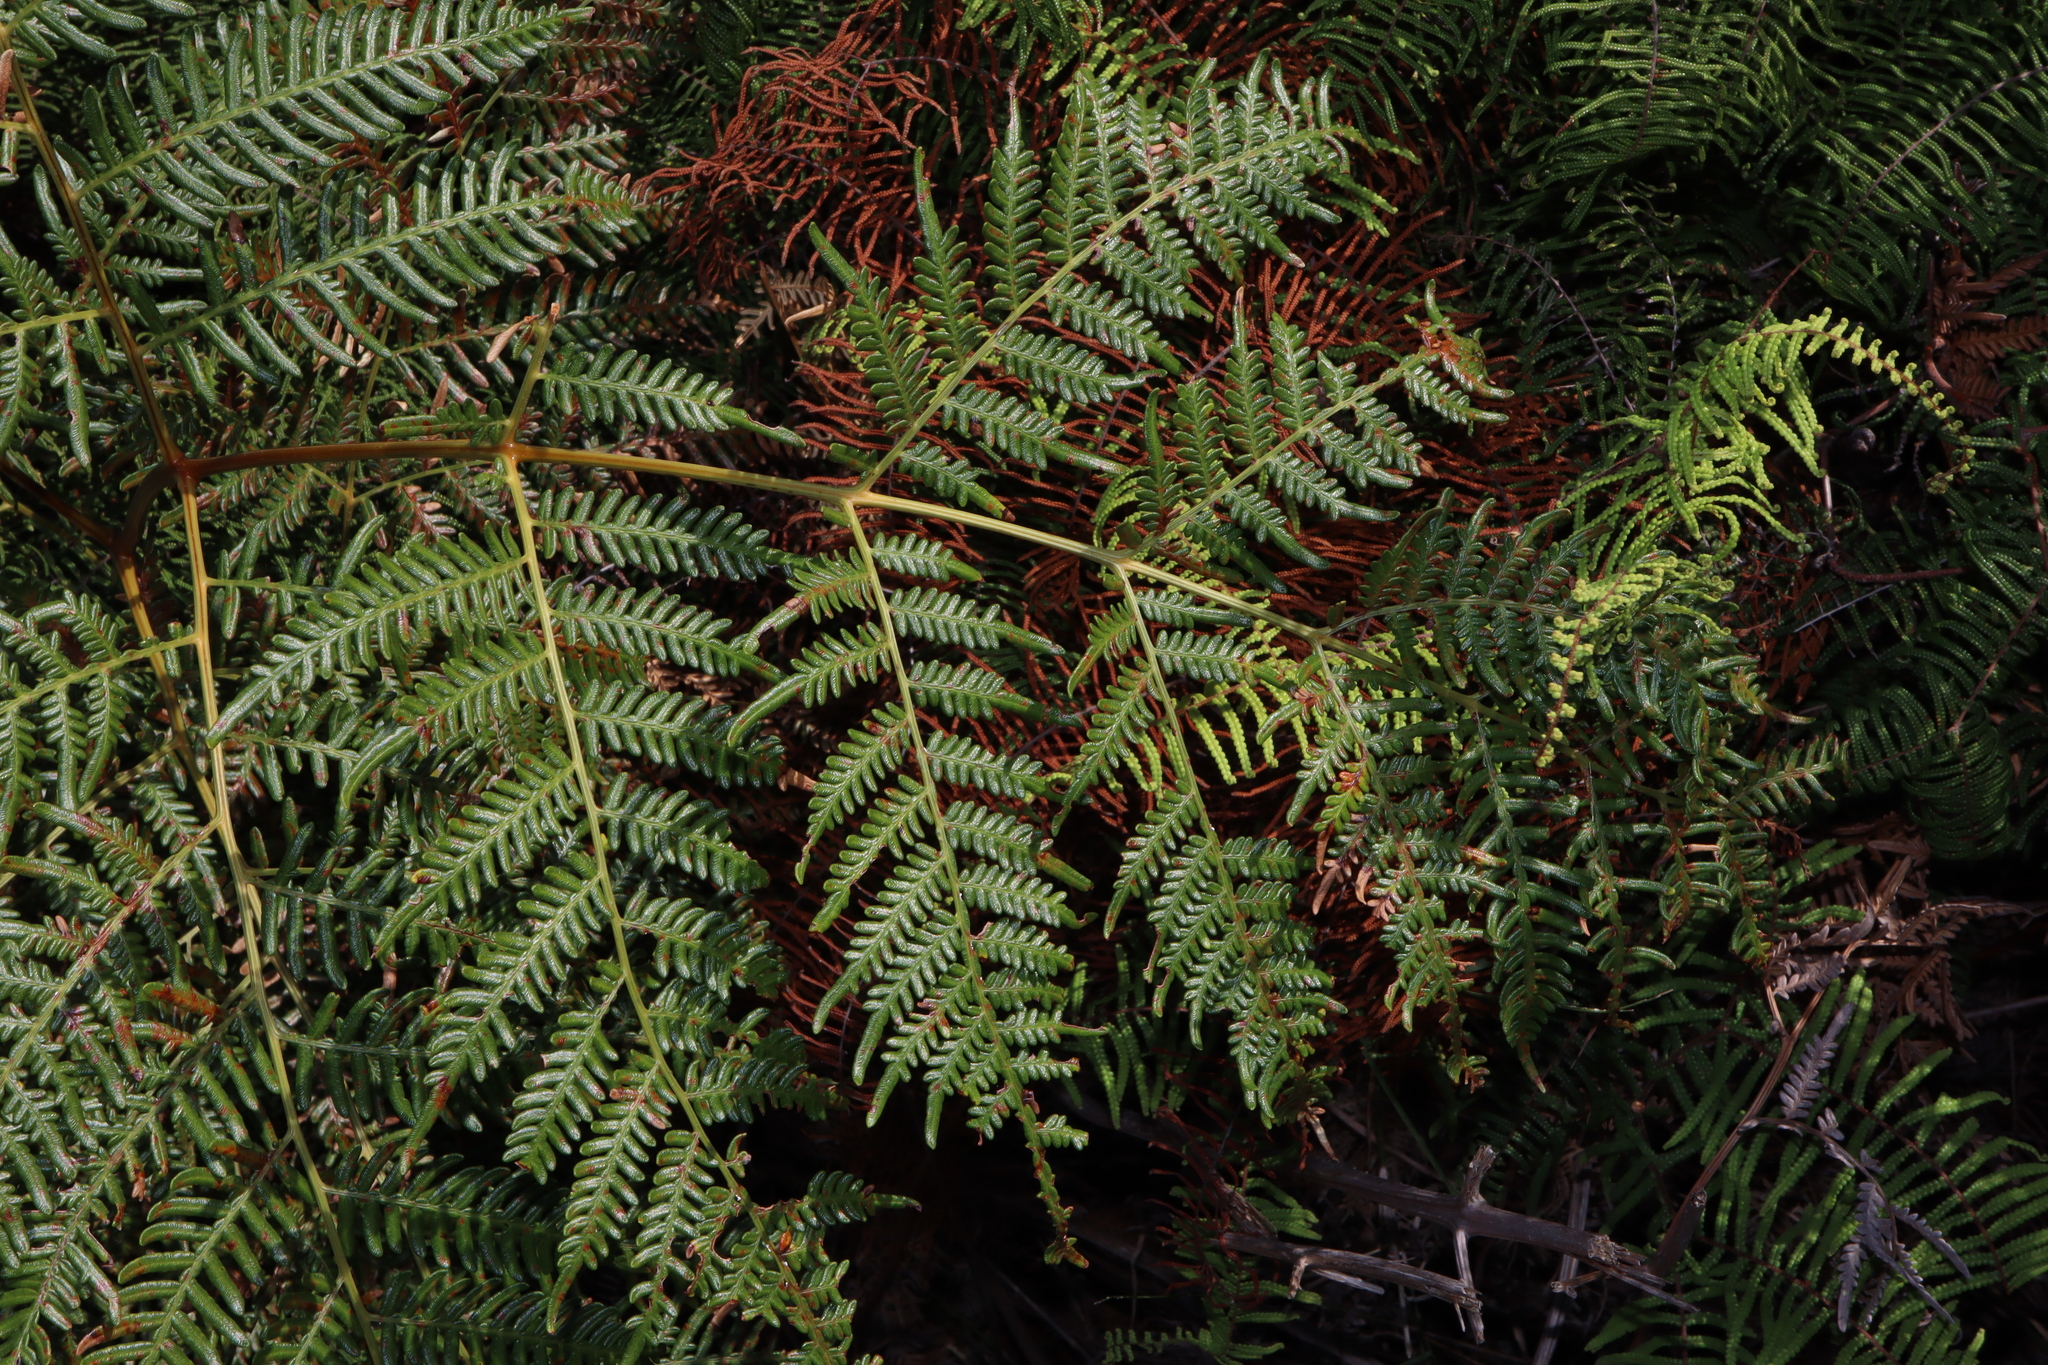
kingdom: Plantae
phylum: Tracheophyta
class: Polypodiopsida
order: Polypodiales
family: Dennstaedtiaceae
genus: Pteridium
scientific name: Pteridium esculentum
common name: Bracken fern
